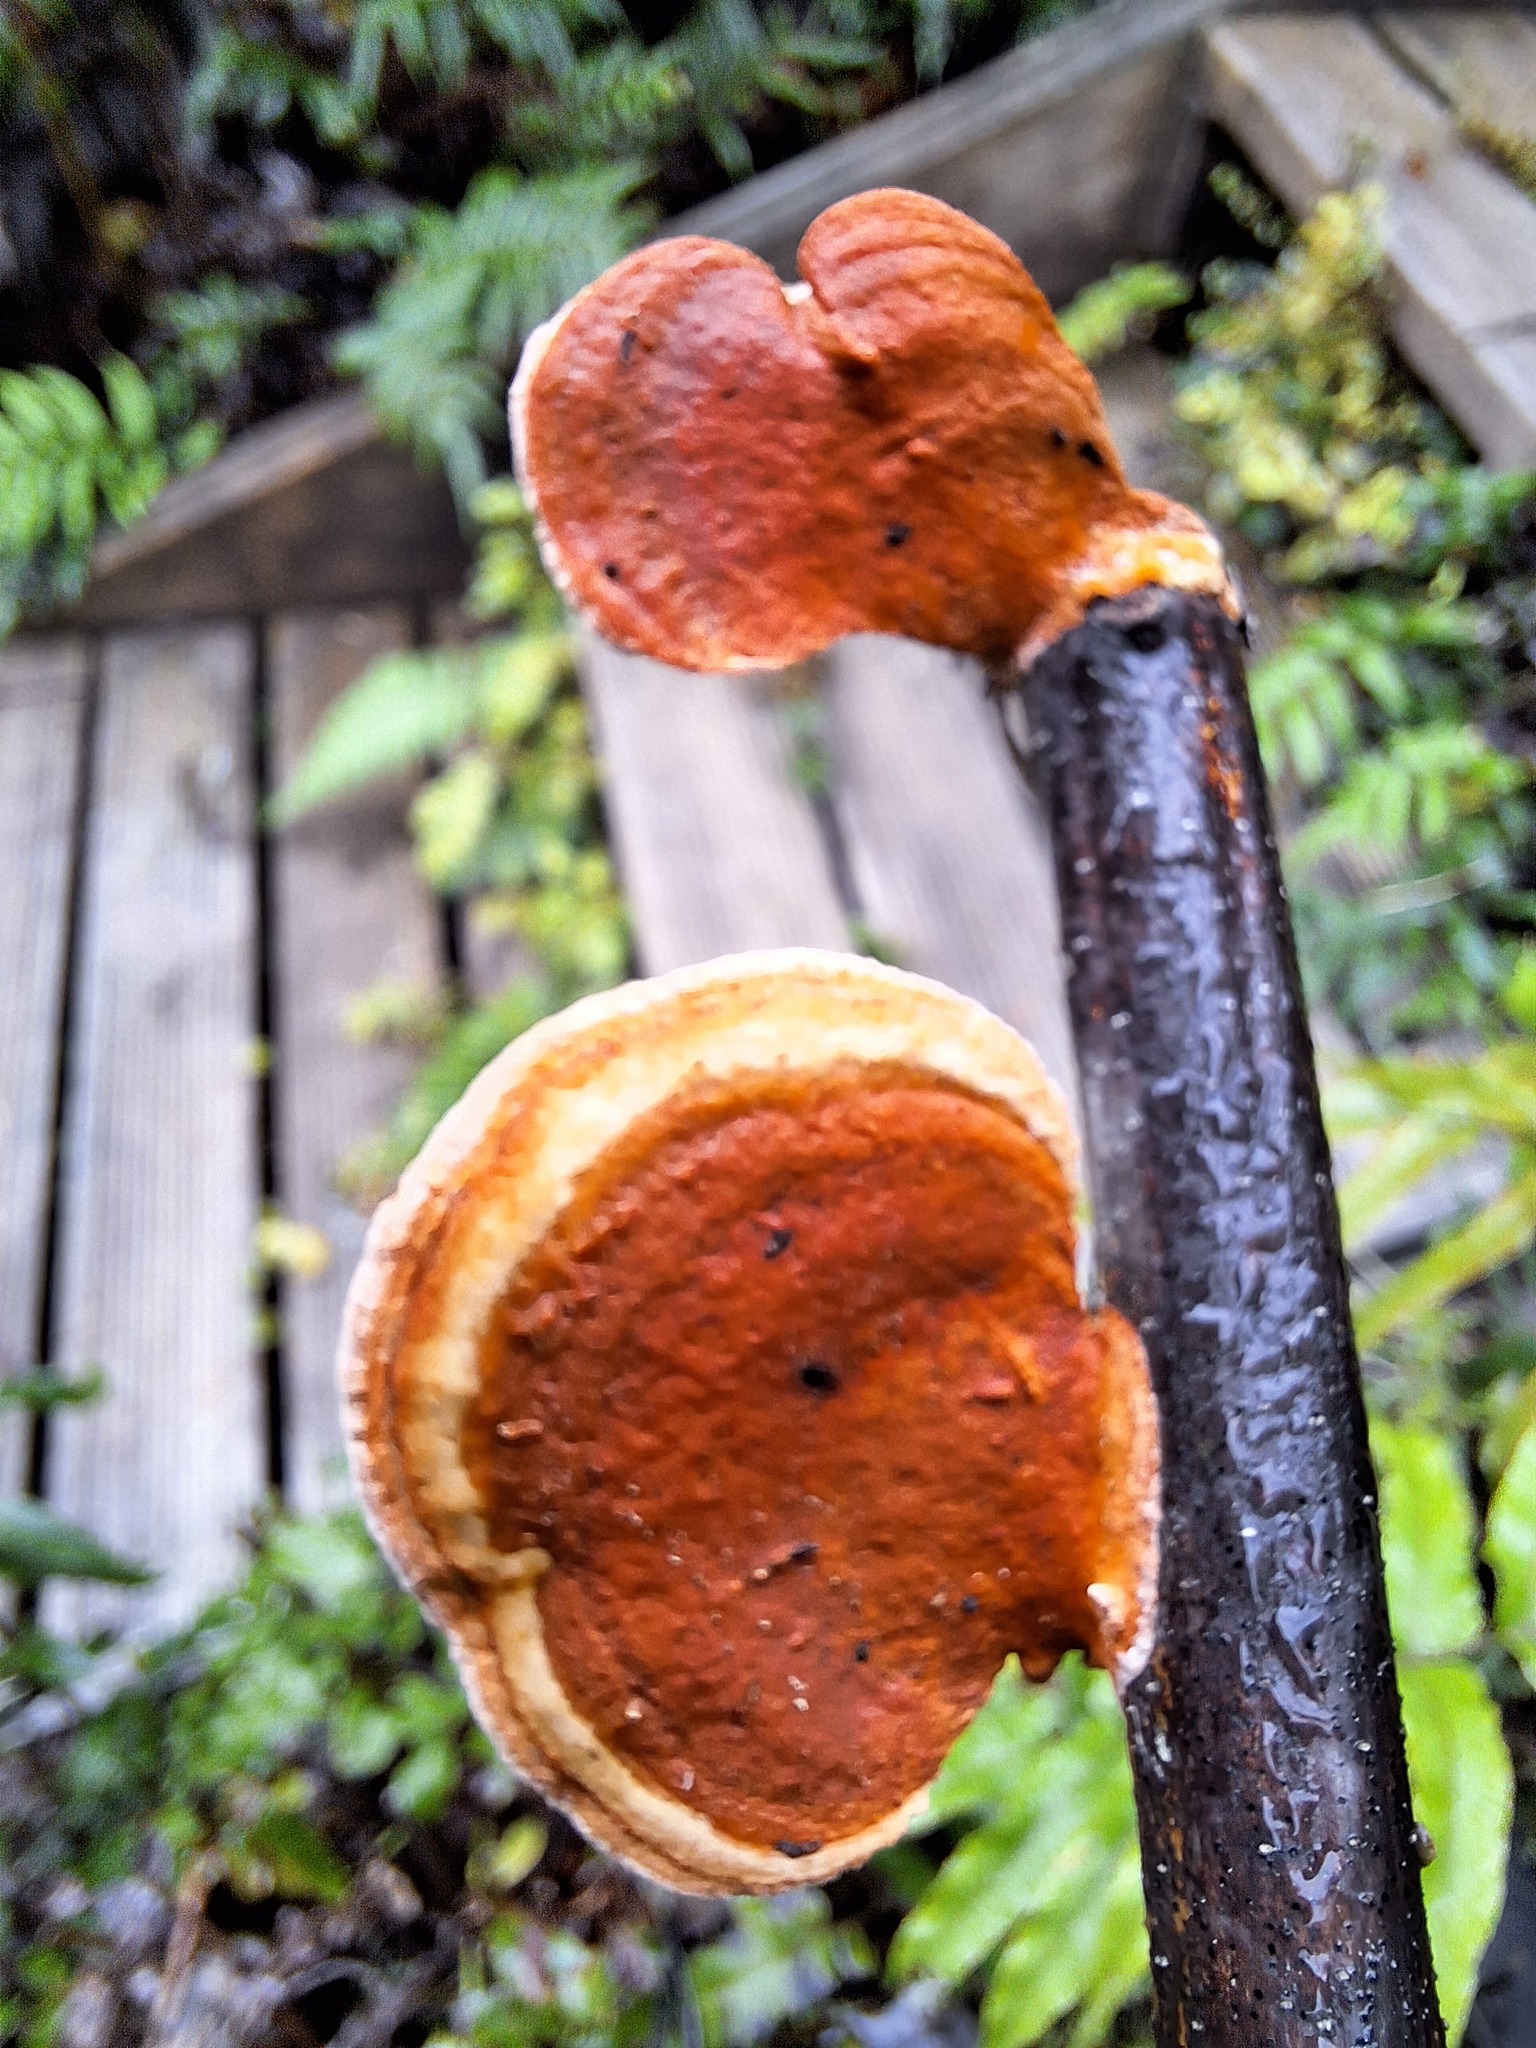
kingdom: Fungi
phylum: Basidiomycota
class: Agaricomycetes
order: Polyporales
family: Polyporaceae
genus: Trametes
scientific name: Trametes coccinea
